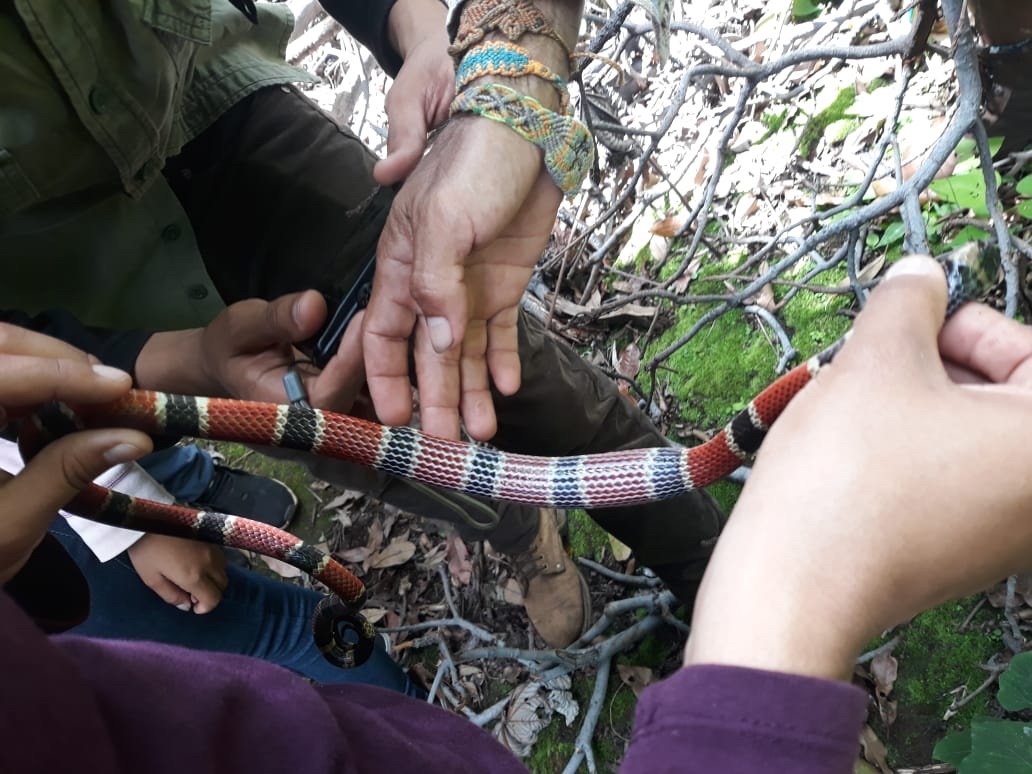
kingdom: Animalia
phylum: Chordata
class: Squamata
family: Elapidae
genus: Micrurus
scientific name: Micrurus nigrocinctus
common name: Babaspul [babaspul]
